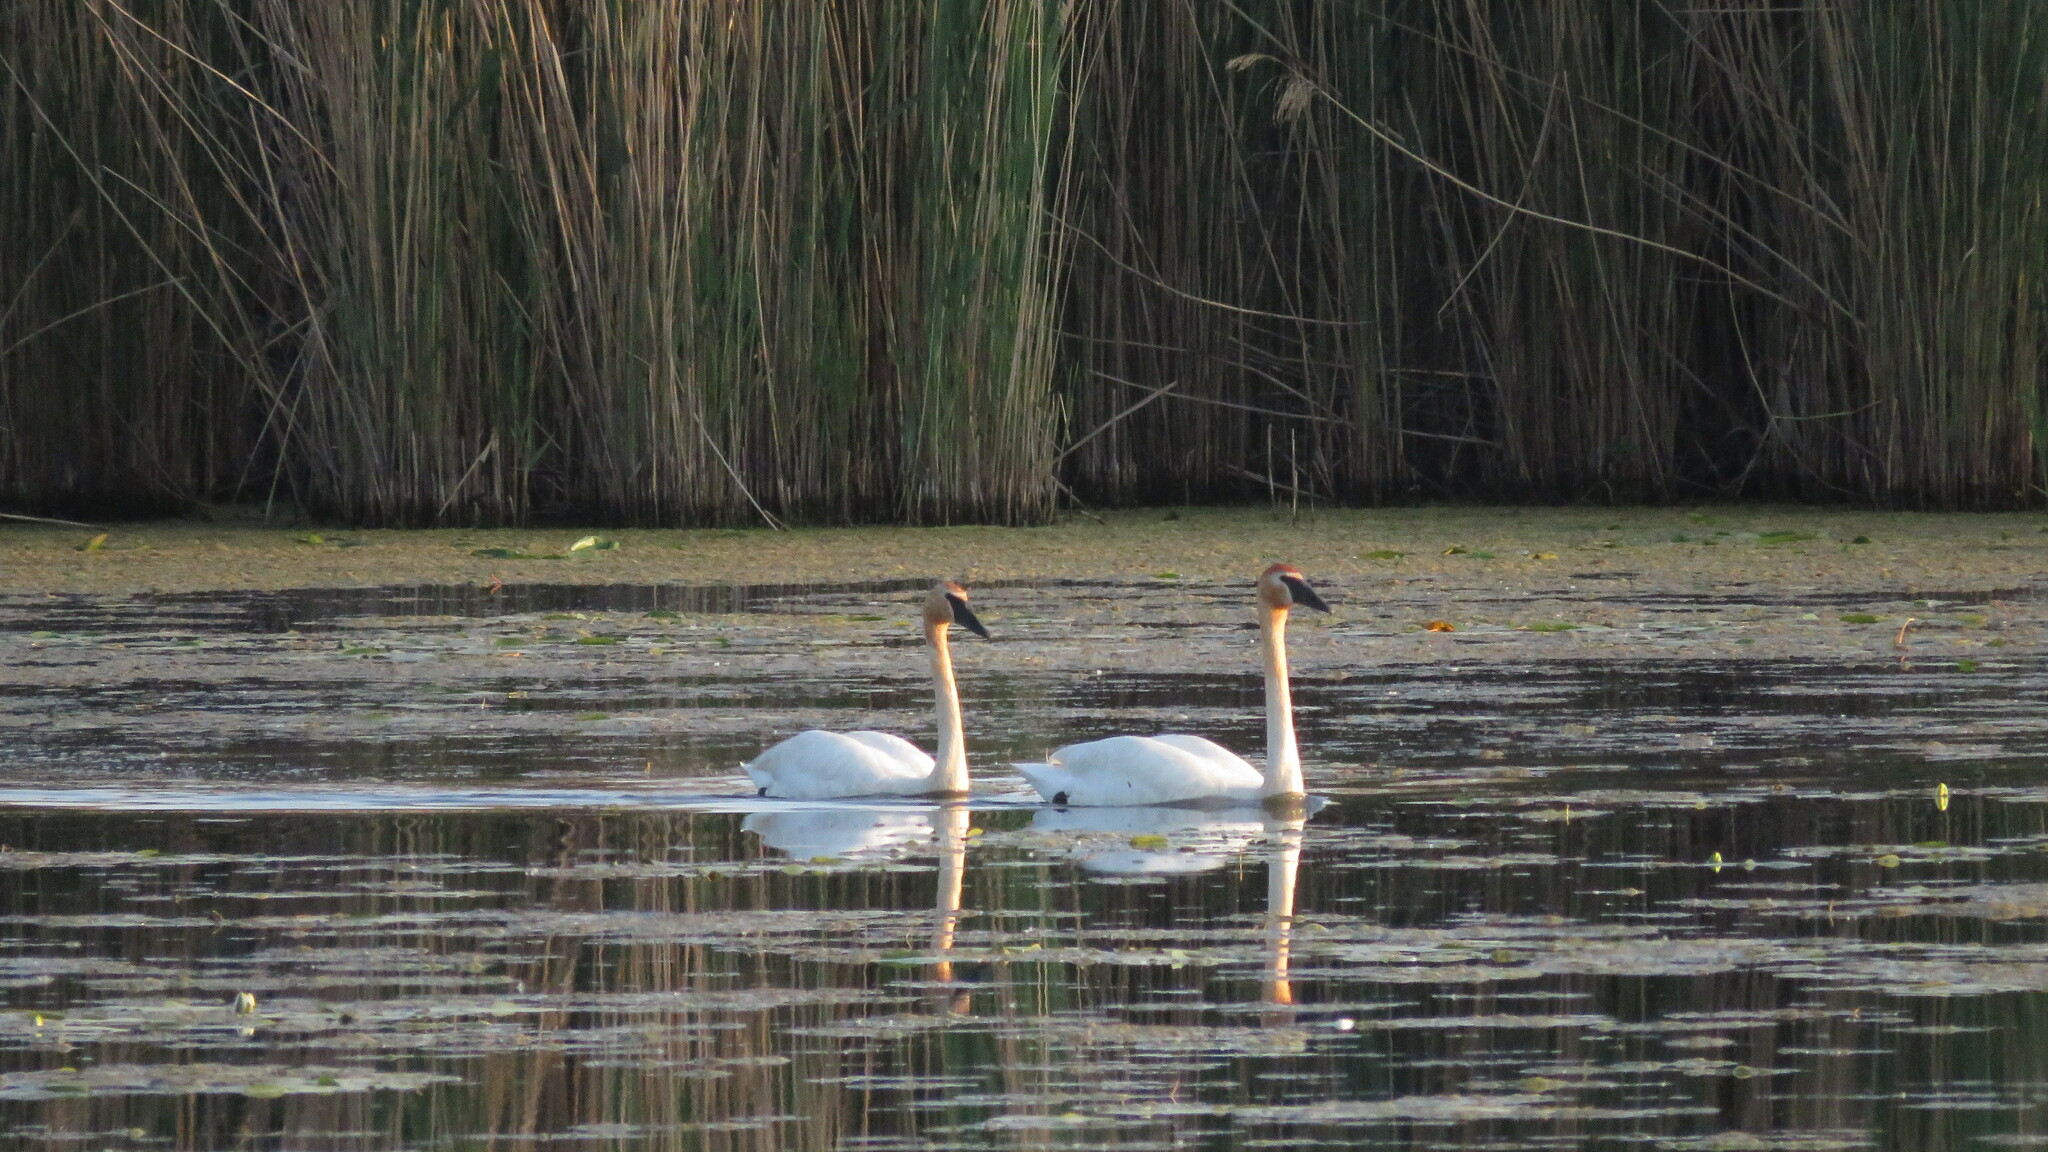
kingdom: Animalia
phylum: Chordata
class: Aves
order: Anseriformes
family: Anatidae
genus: Cygnus
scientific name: Cygnus buccinator
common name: Trumpeter swan
